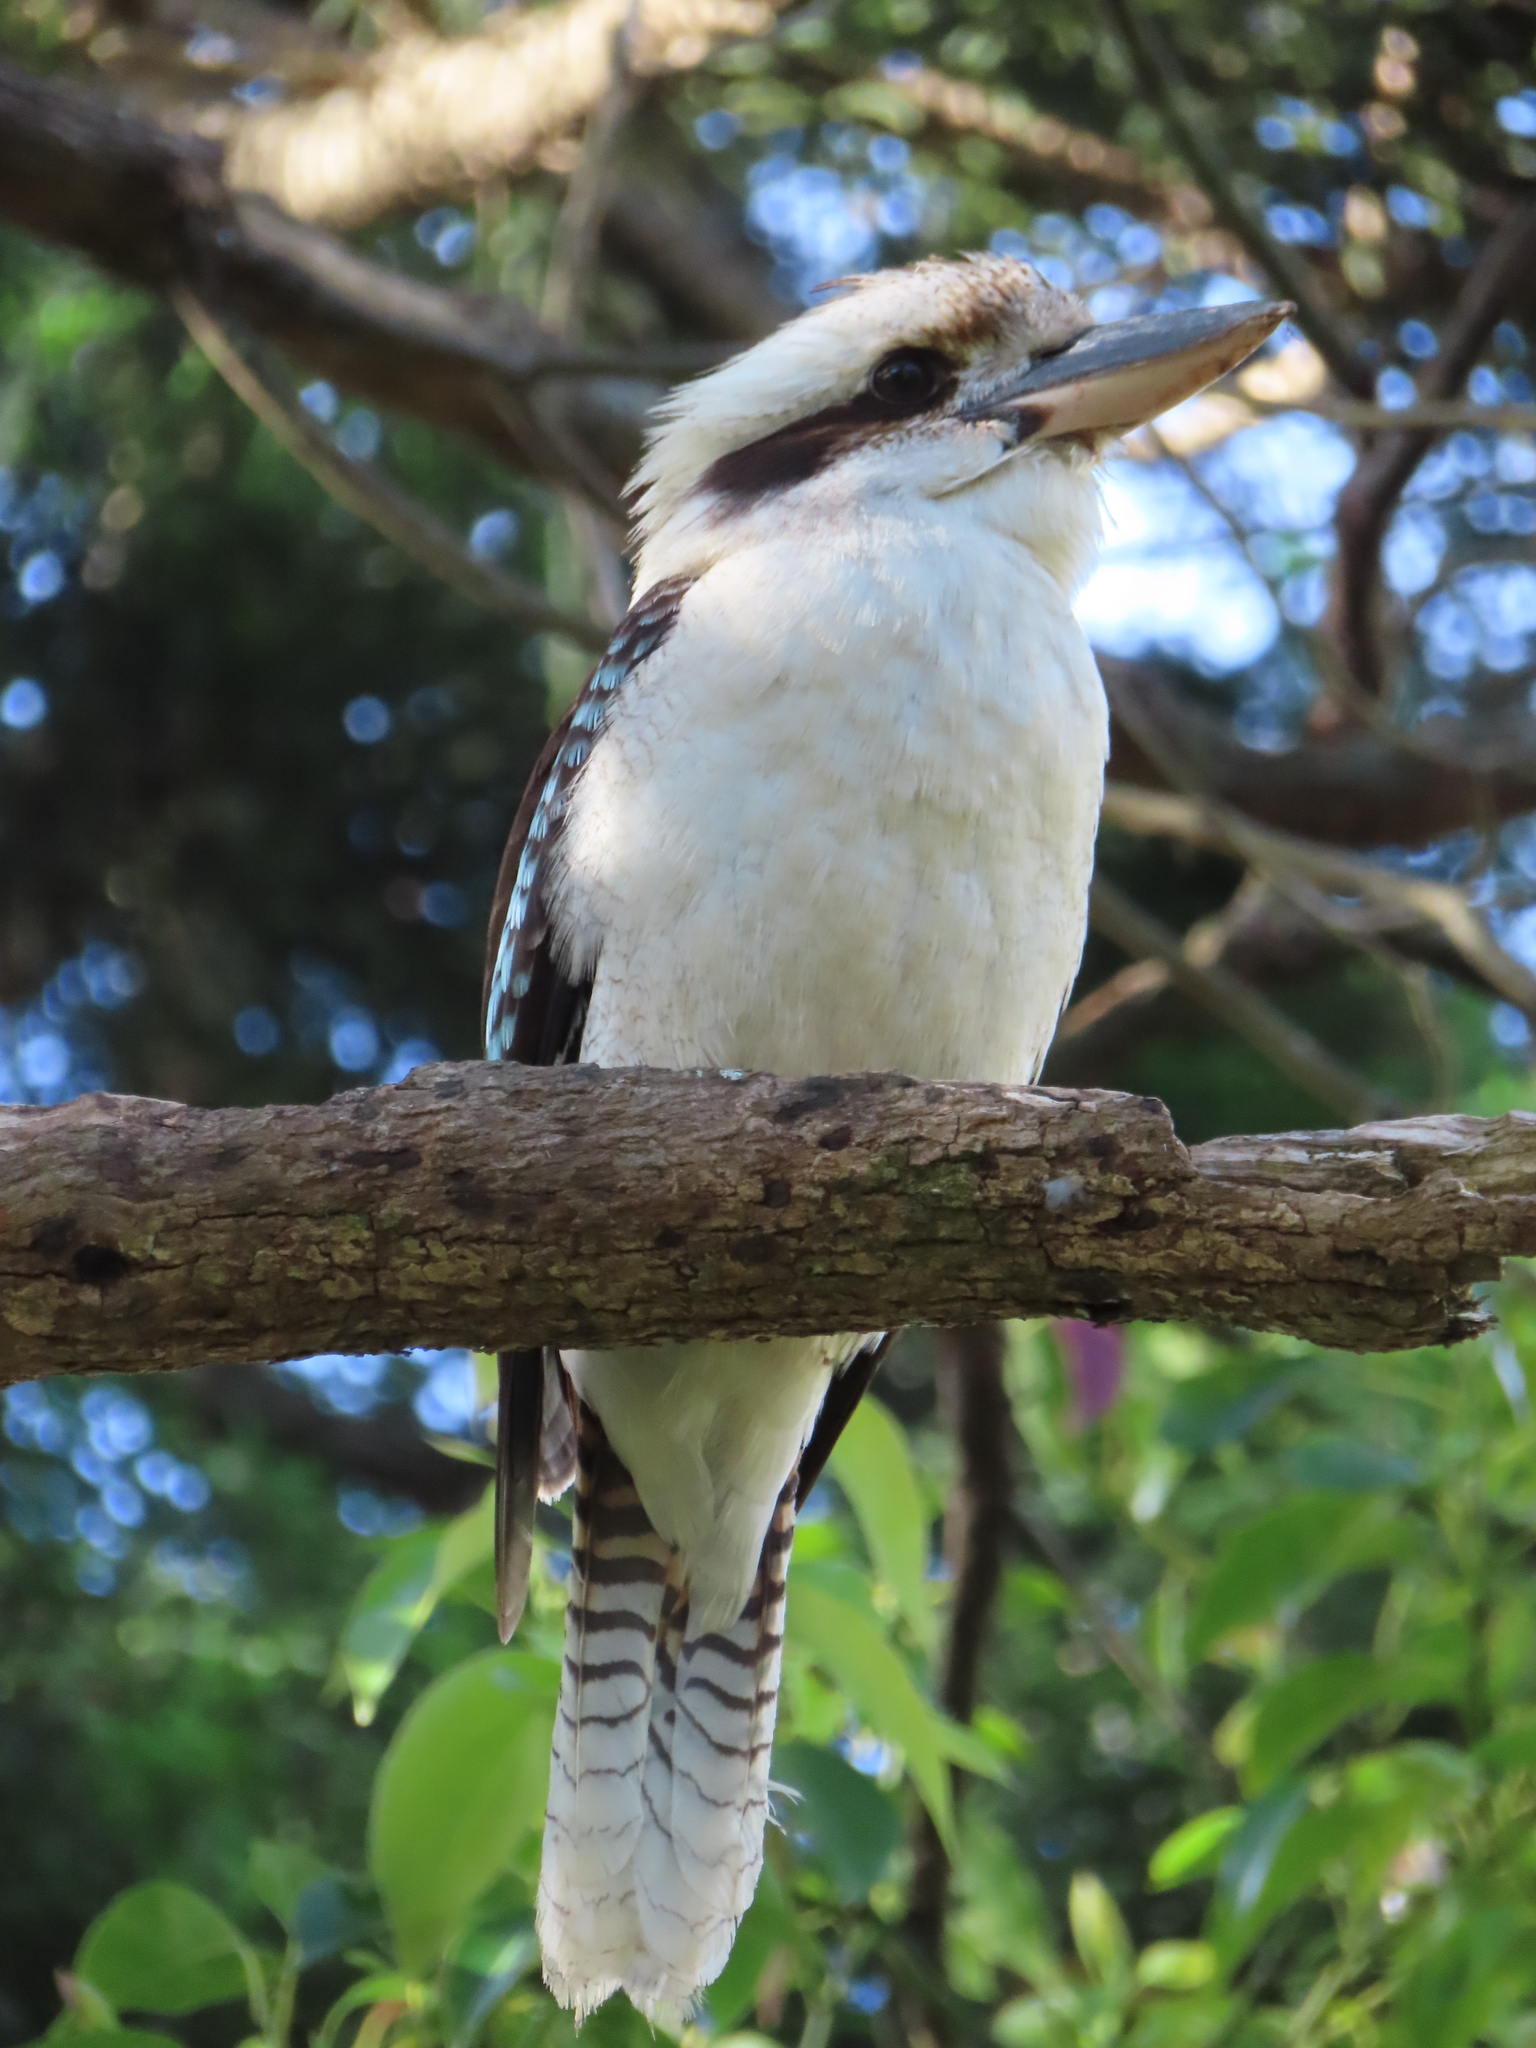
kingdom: Animalia
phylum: Chordata
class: Aves
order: Coraciiformes
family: Alcedinidae
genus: Dacelo
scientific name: Dacelo novaeguineae
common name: Laughing kookaburra
